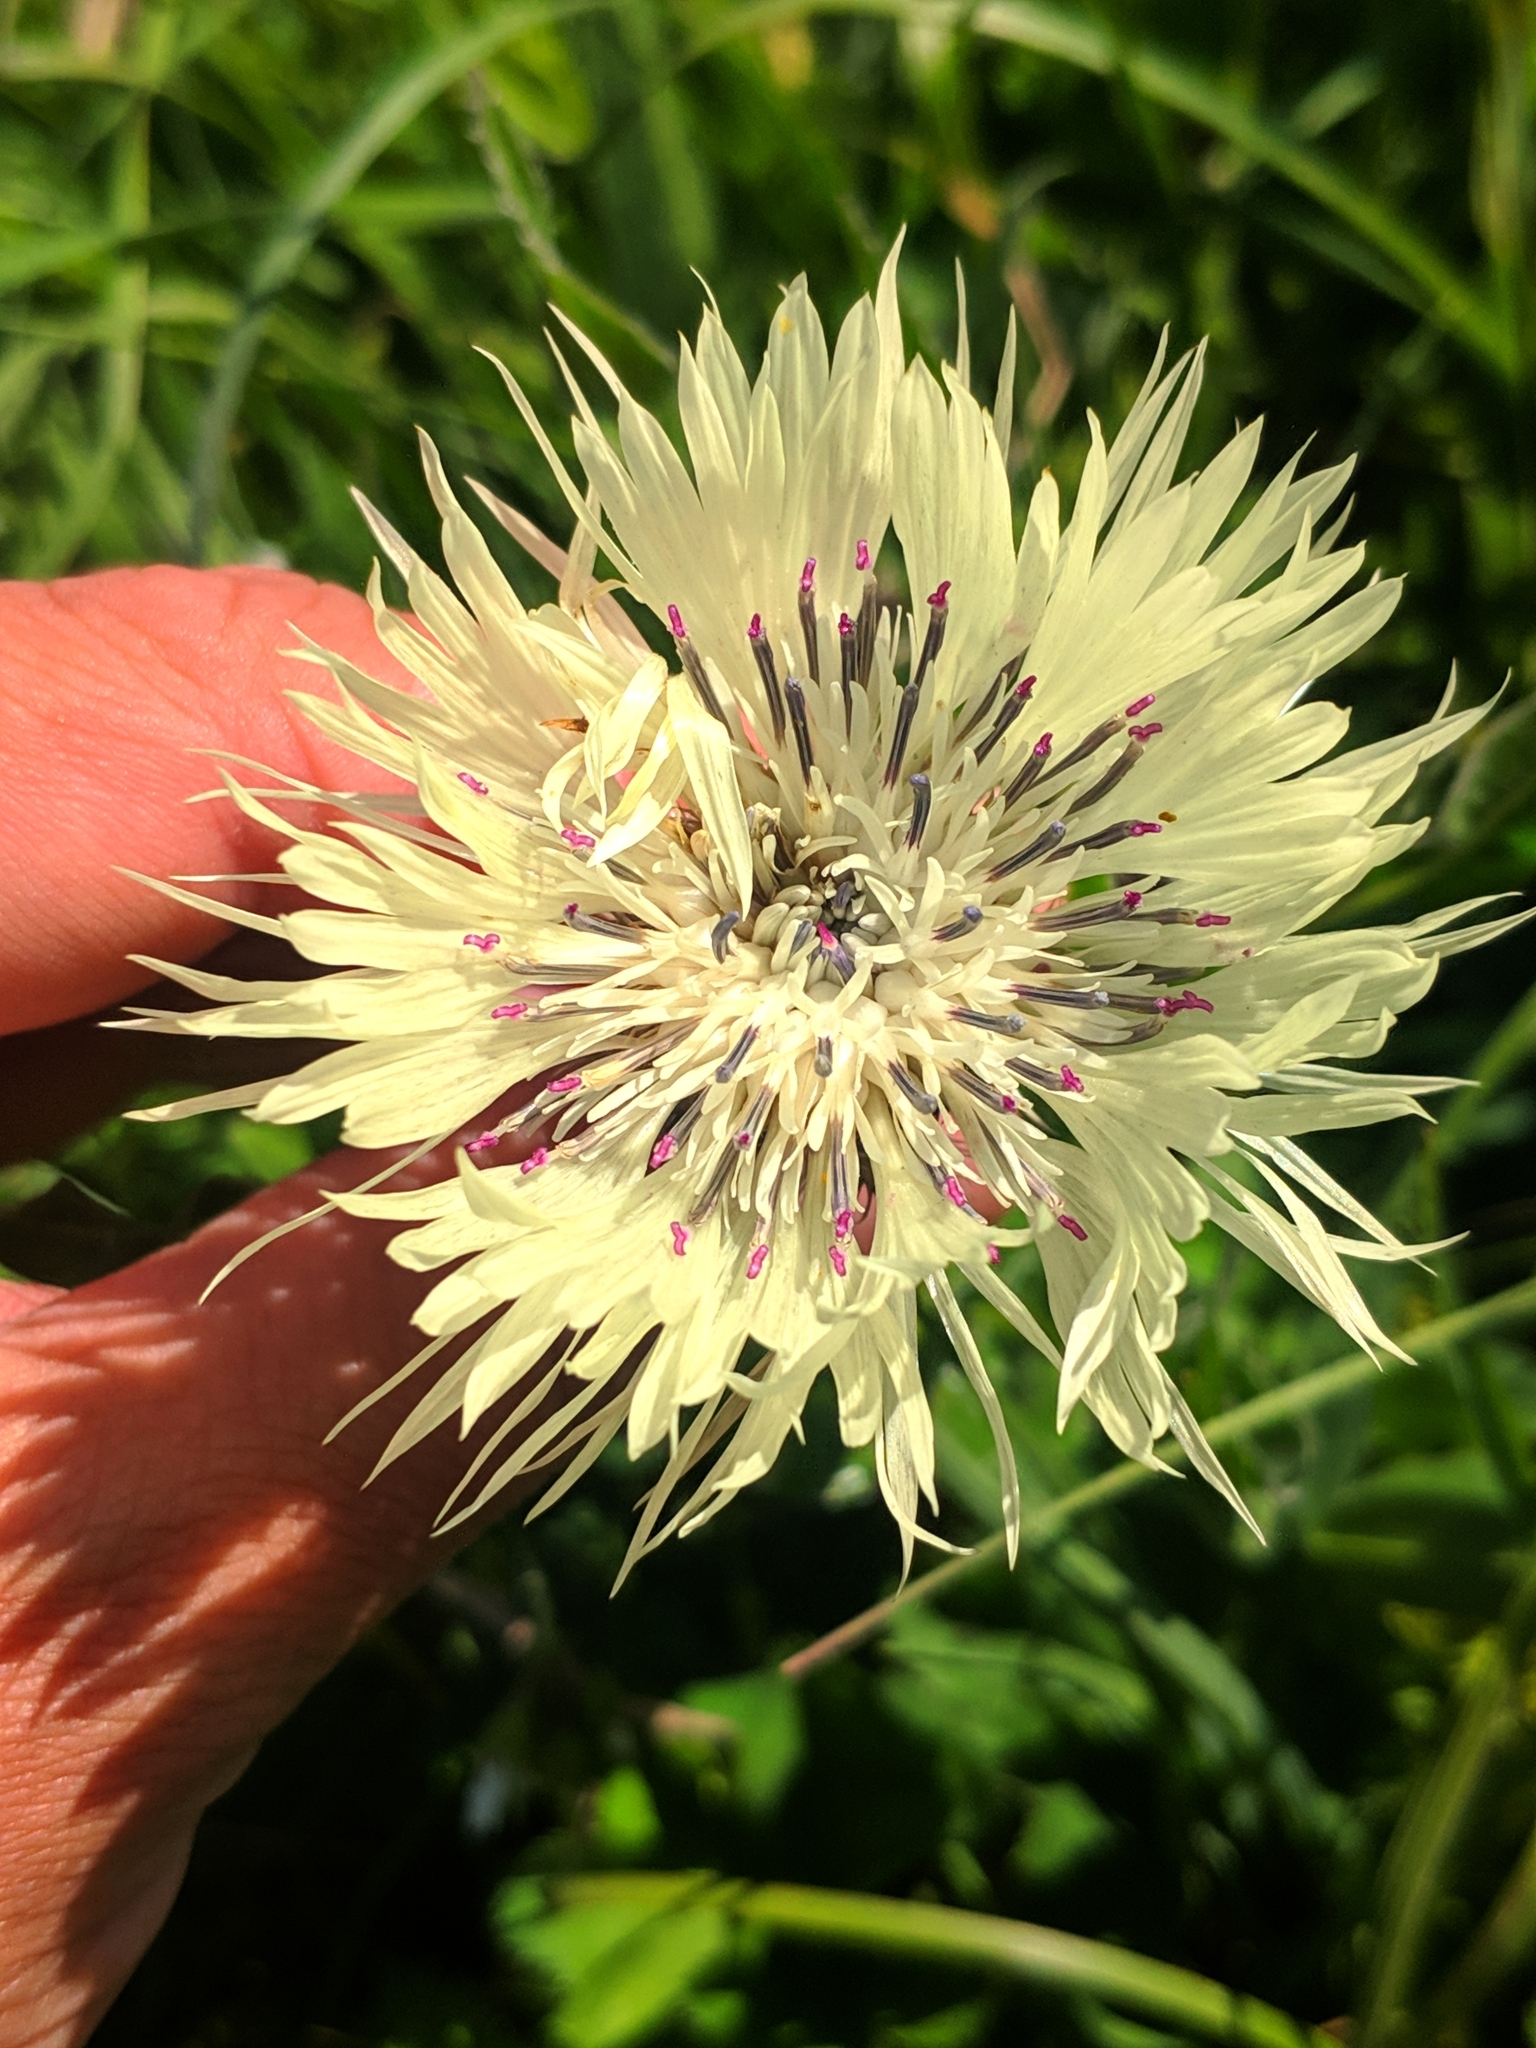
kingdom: Plantae
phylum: Tracheophyta
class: Magnoliopsida
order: Asterales
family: Asteraceae
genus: Centaurea
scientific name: Centaurea cheiranthifolia
